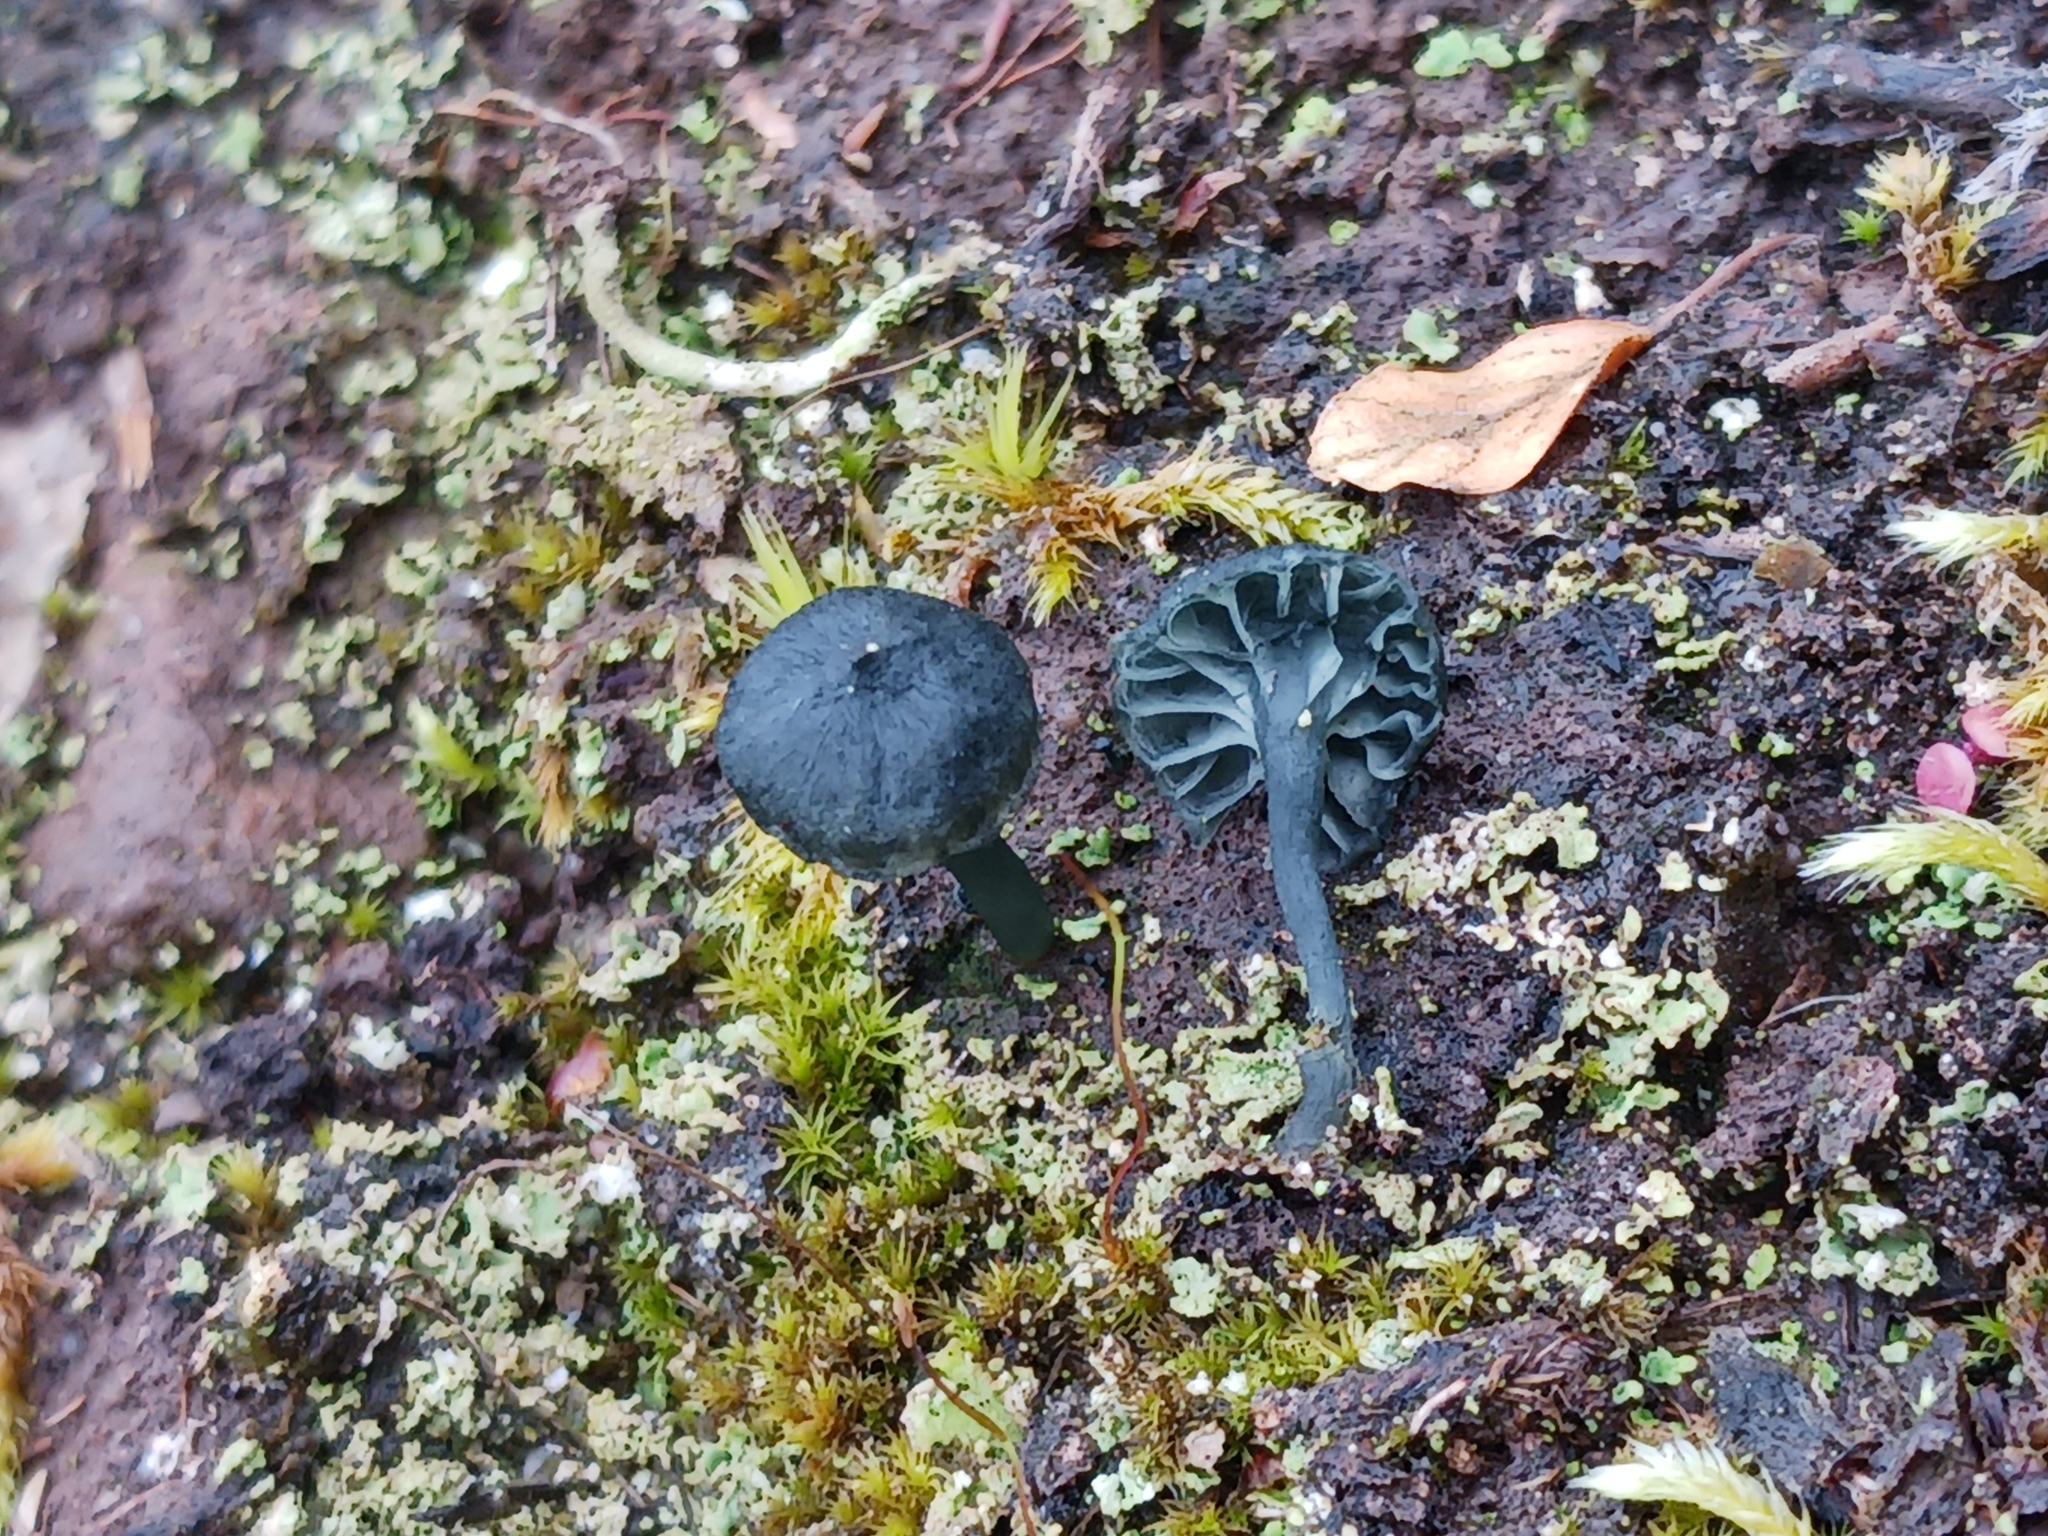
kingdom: Fungi
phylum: Basidiomycota
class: Agaricomycetes
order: Agaricales
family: Hygrophoraceae
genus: Arrhenia
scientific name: Arrhenia chlorocyanea
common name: Verdigris navel
